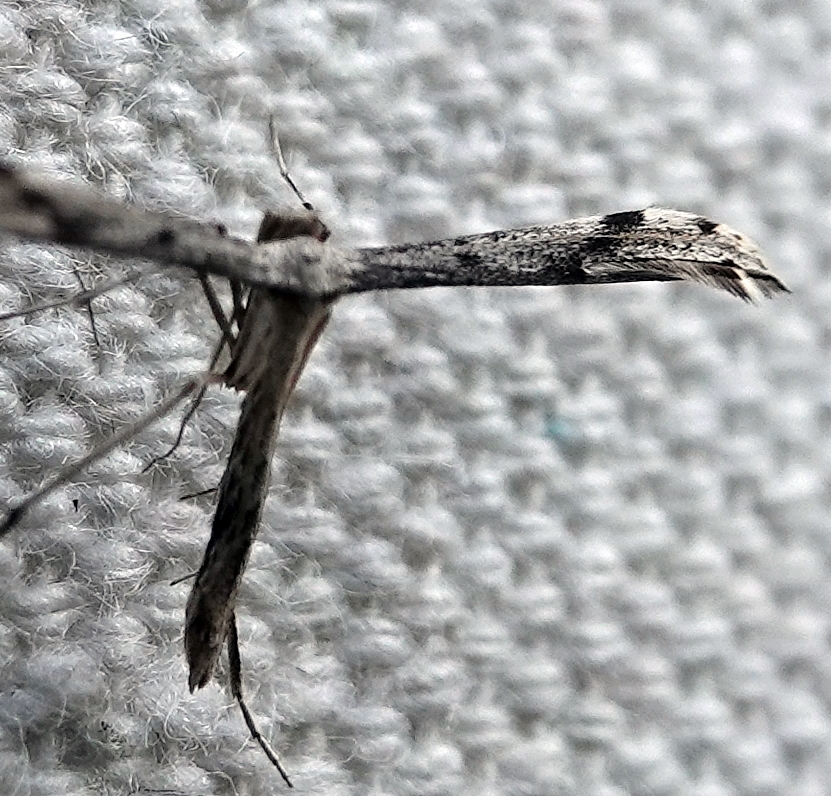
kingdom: Animalia
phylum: Arthropoda
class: Insecta
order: Lepidoptera
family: Pterophoridae
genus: Adaina
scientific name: Adaina ambrosiae
